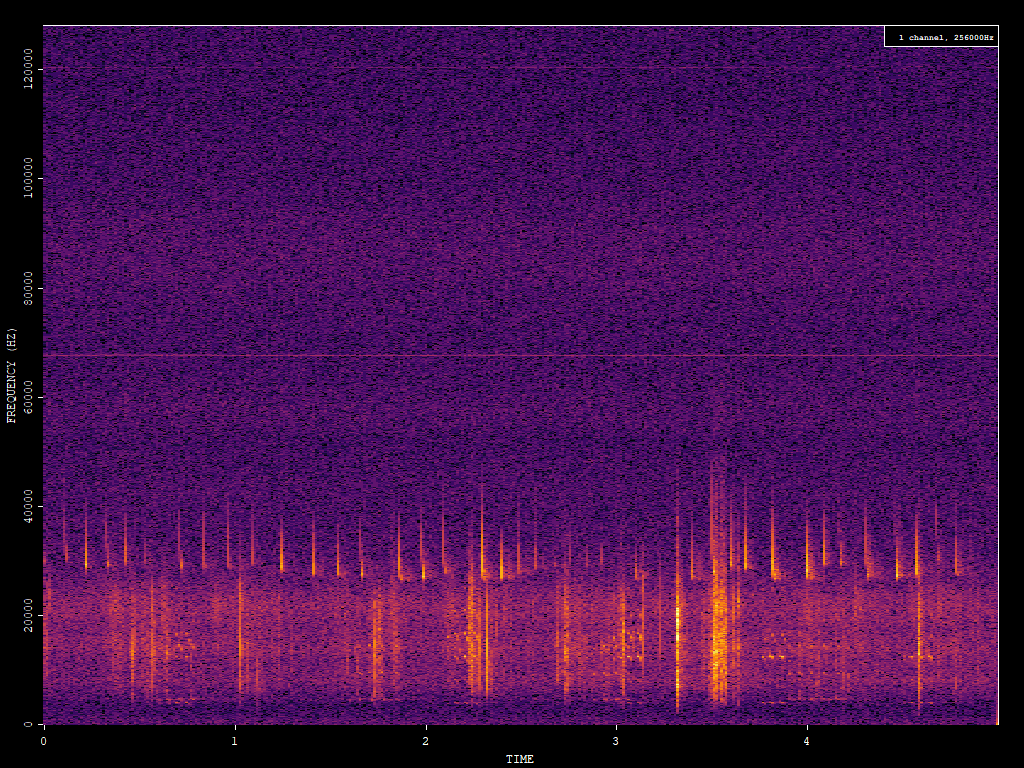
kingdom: Animalia
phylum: Chordata
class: Mammalia
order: Chiroptera
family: Vespertilionidae
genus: Eptesicus
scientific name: Eptesicus fuscus
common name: Big brown bat
